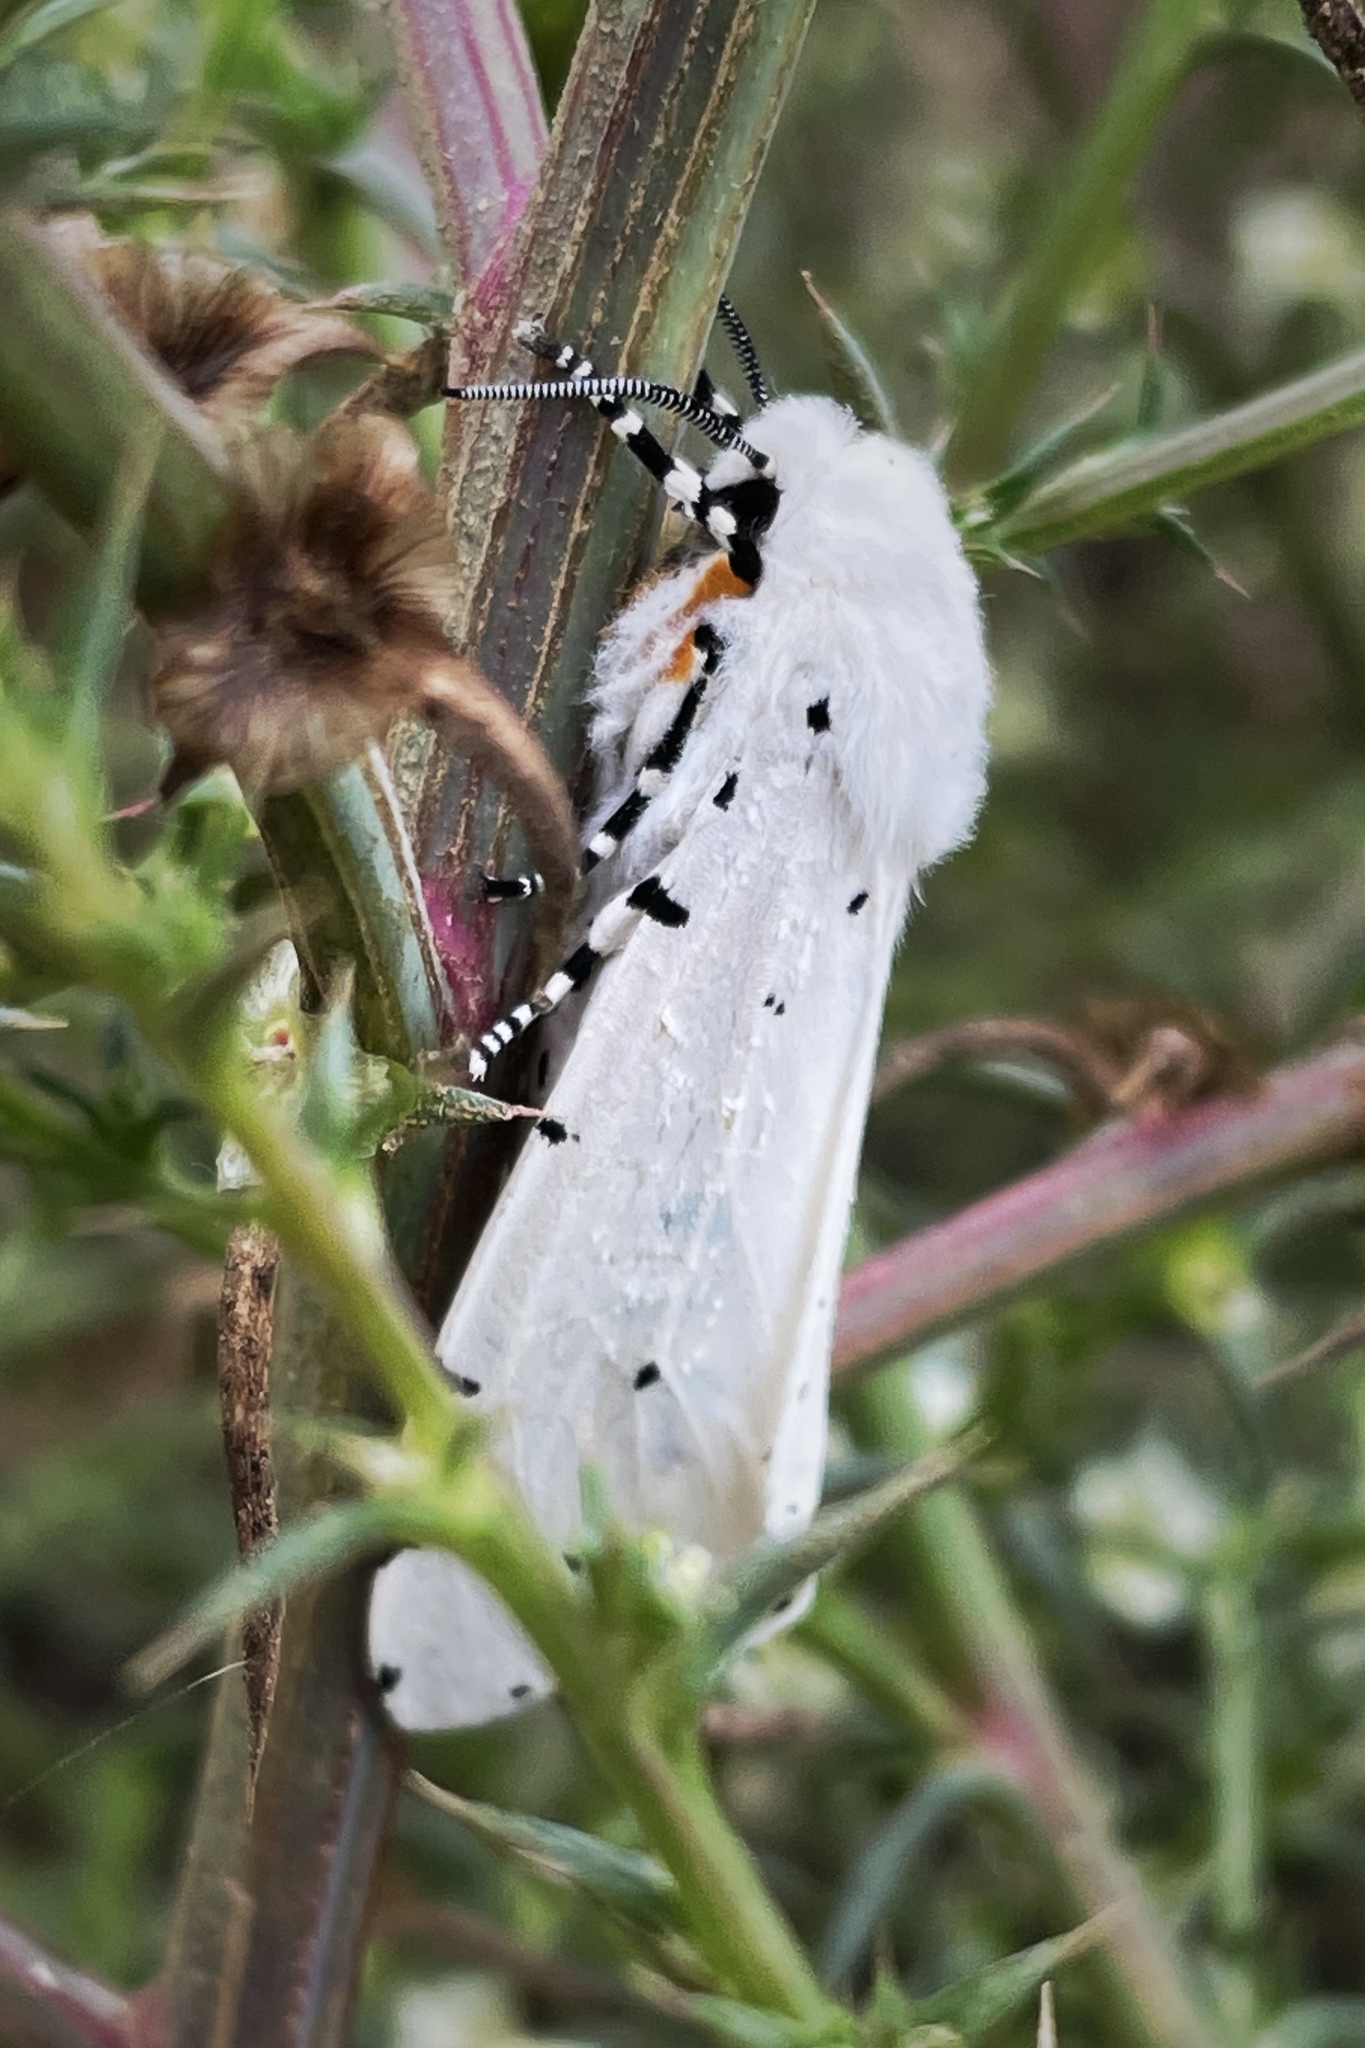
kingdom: Animalia
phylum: Arthropoda
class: Insecta
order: Lepidoptera
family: Erebidae
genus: Estigmene
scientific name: Estigmene acrea
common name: Salt marsh moth
